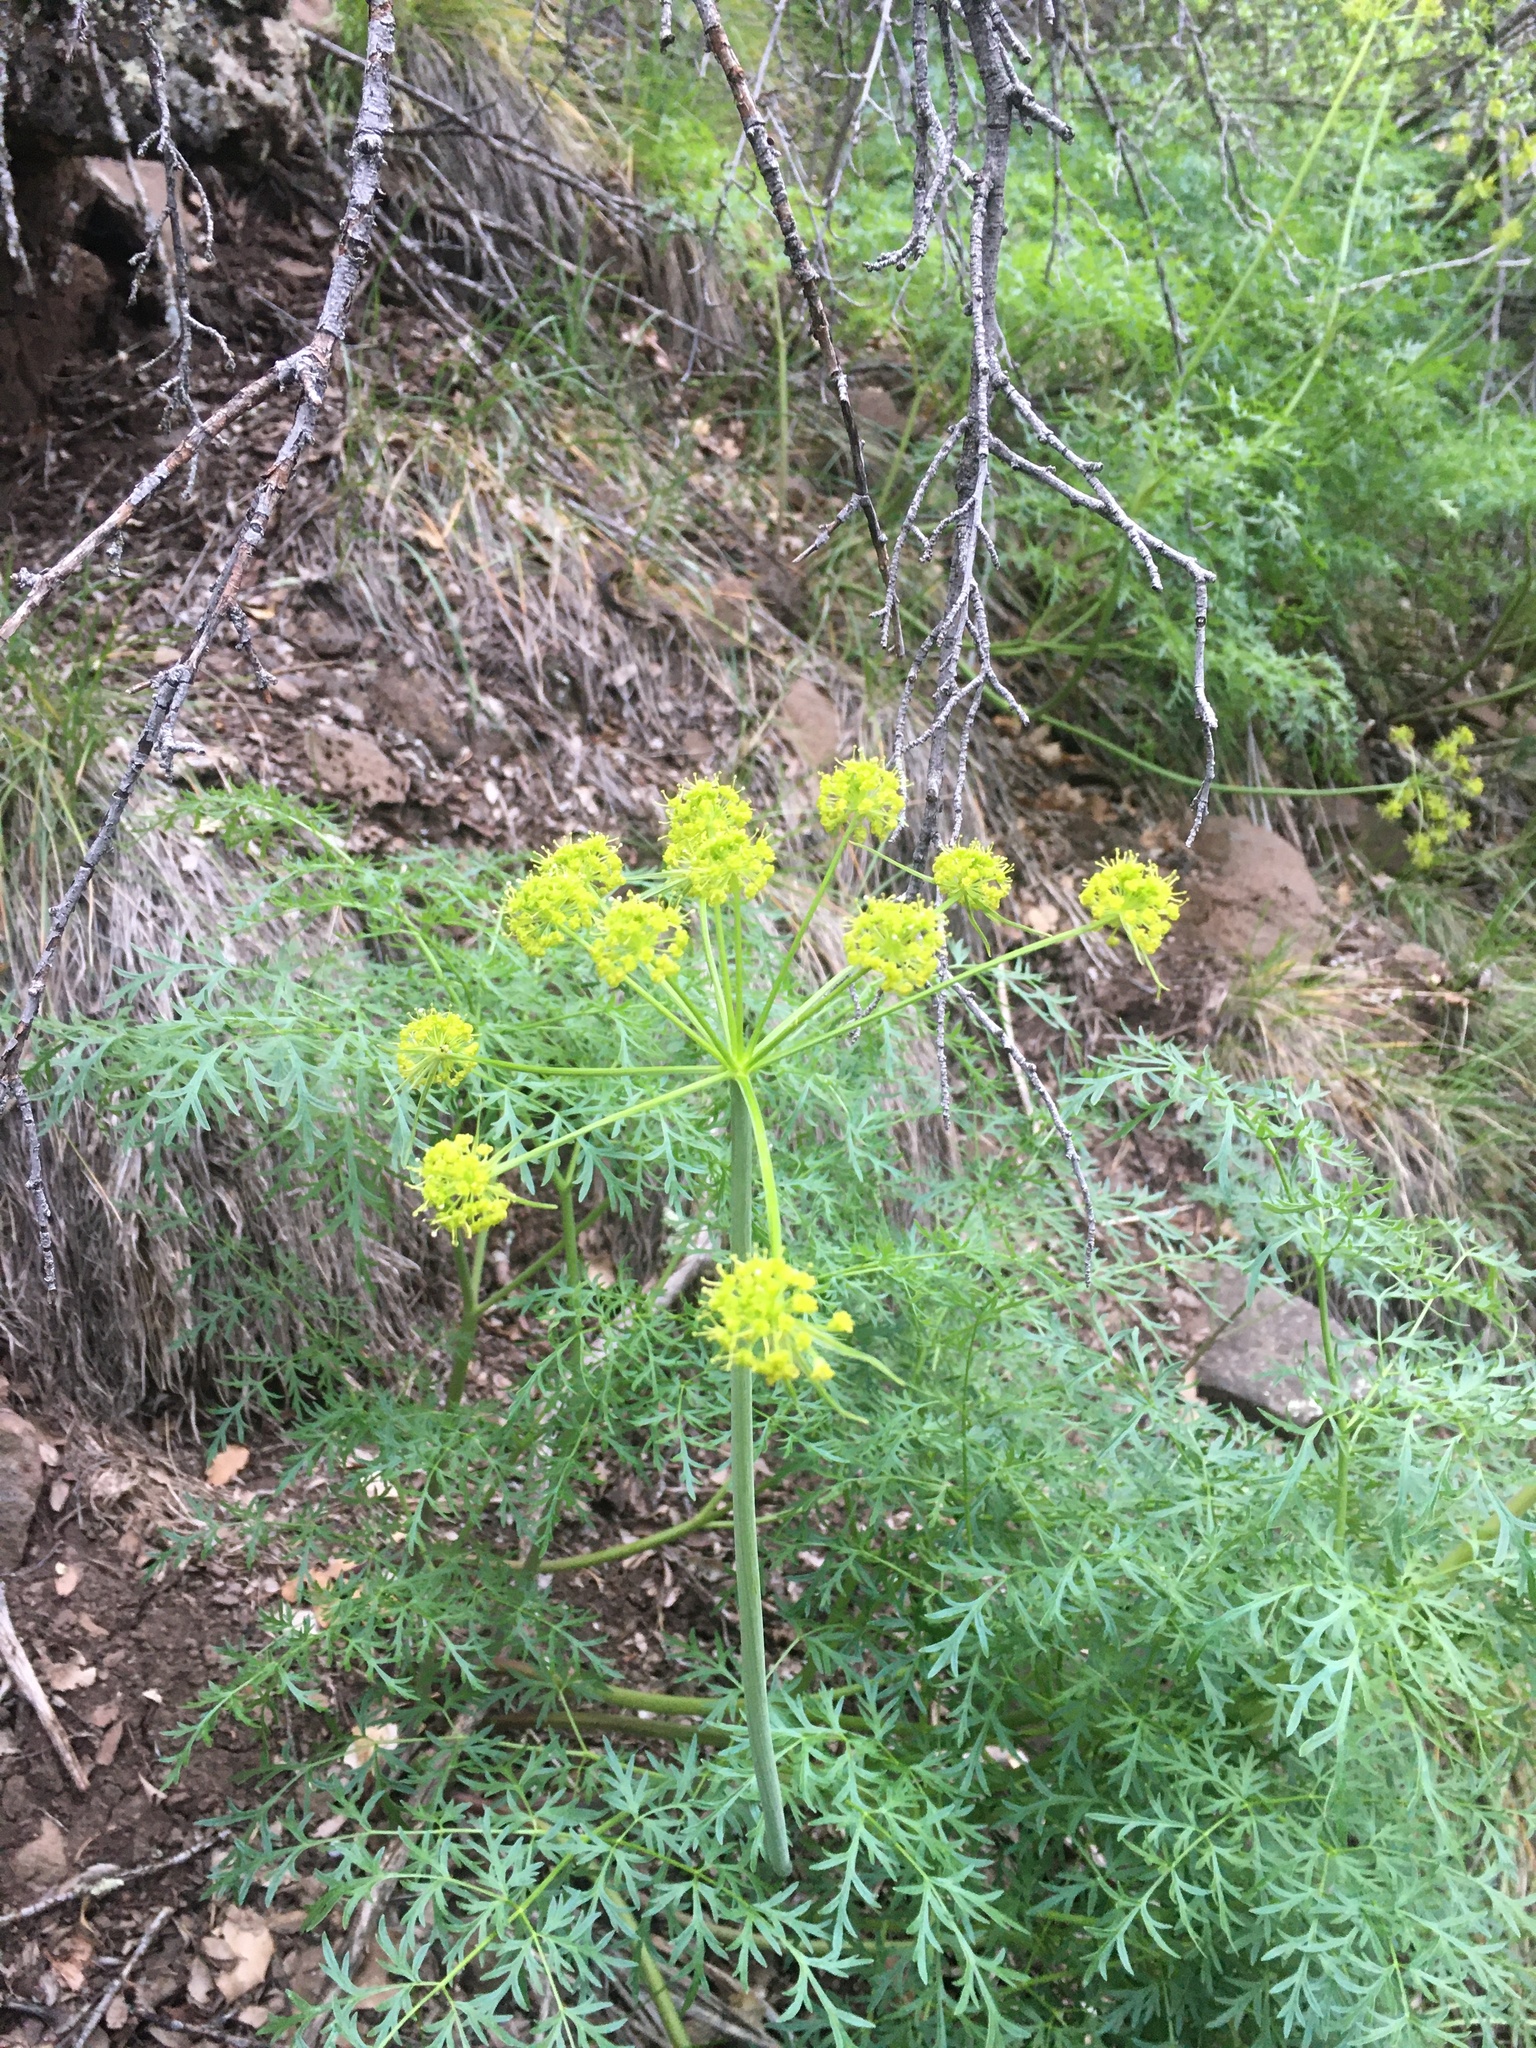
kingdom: Plantae
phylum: Tracheophyta
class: Magnoliopsida
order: Apiales
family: Apiaceae
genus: Lomatium
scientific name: Lomatium dissectum
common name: Lomatium
